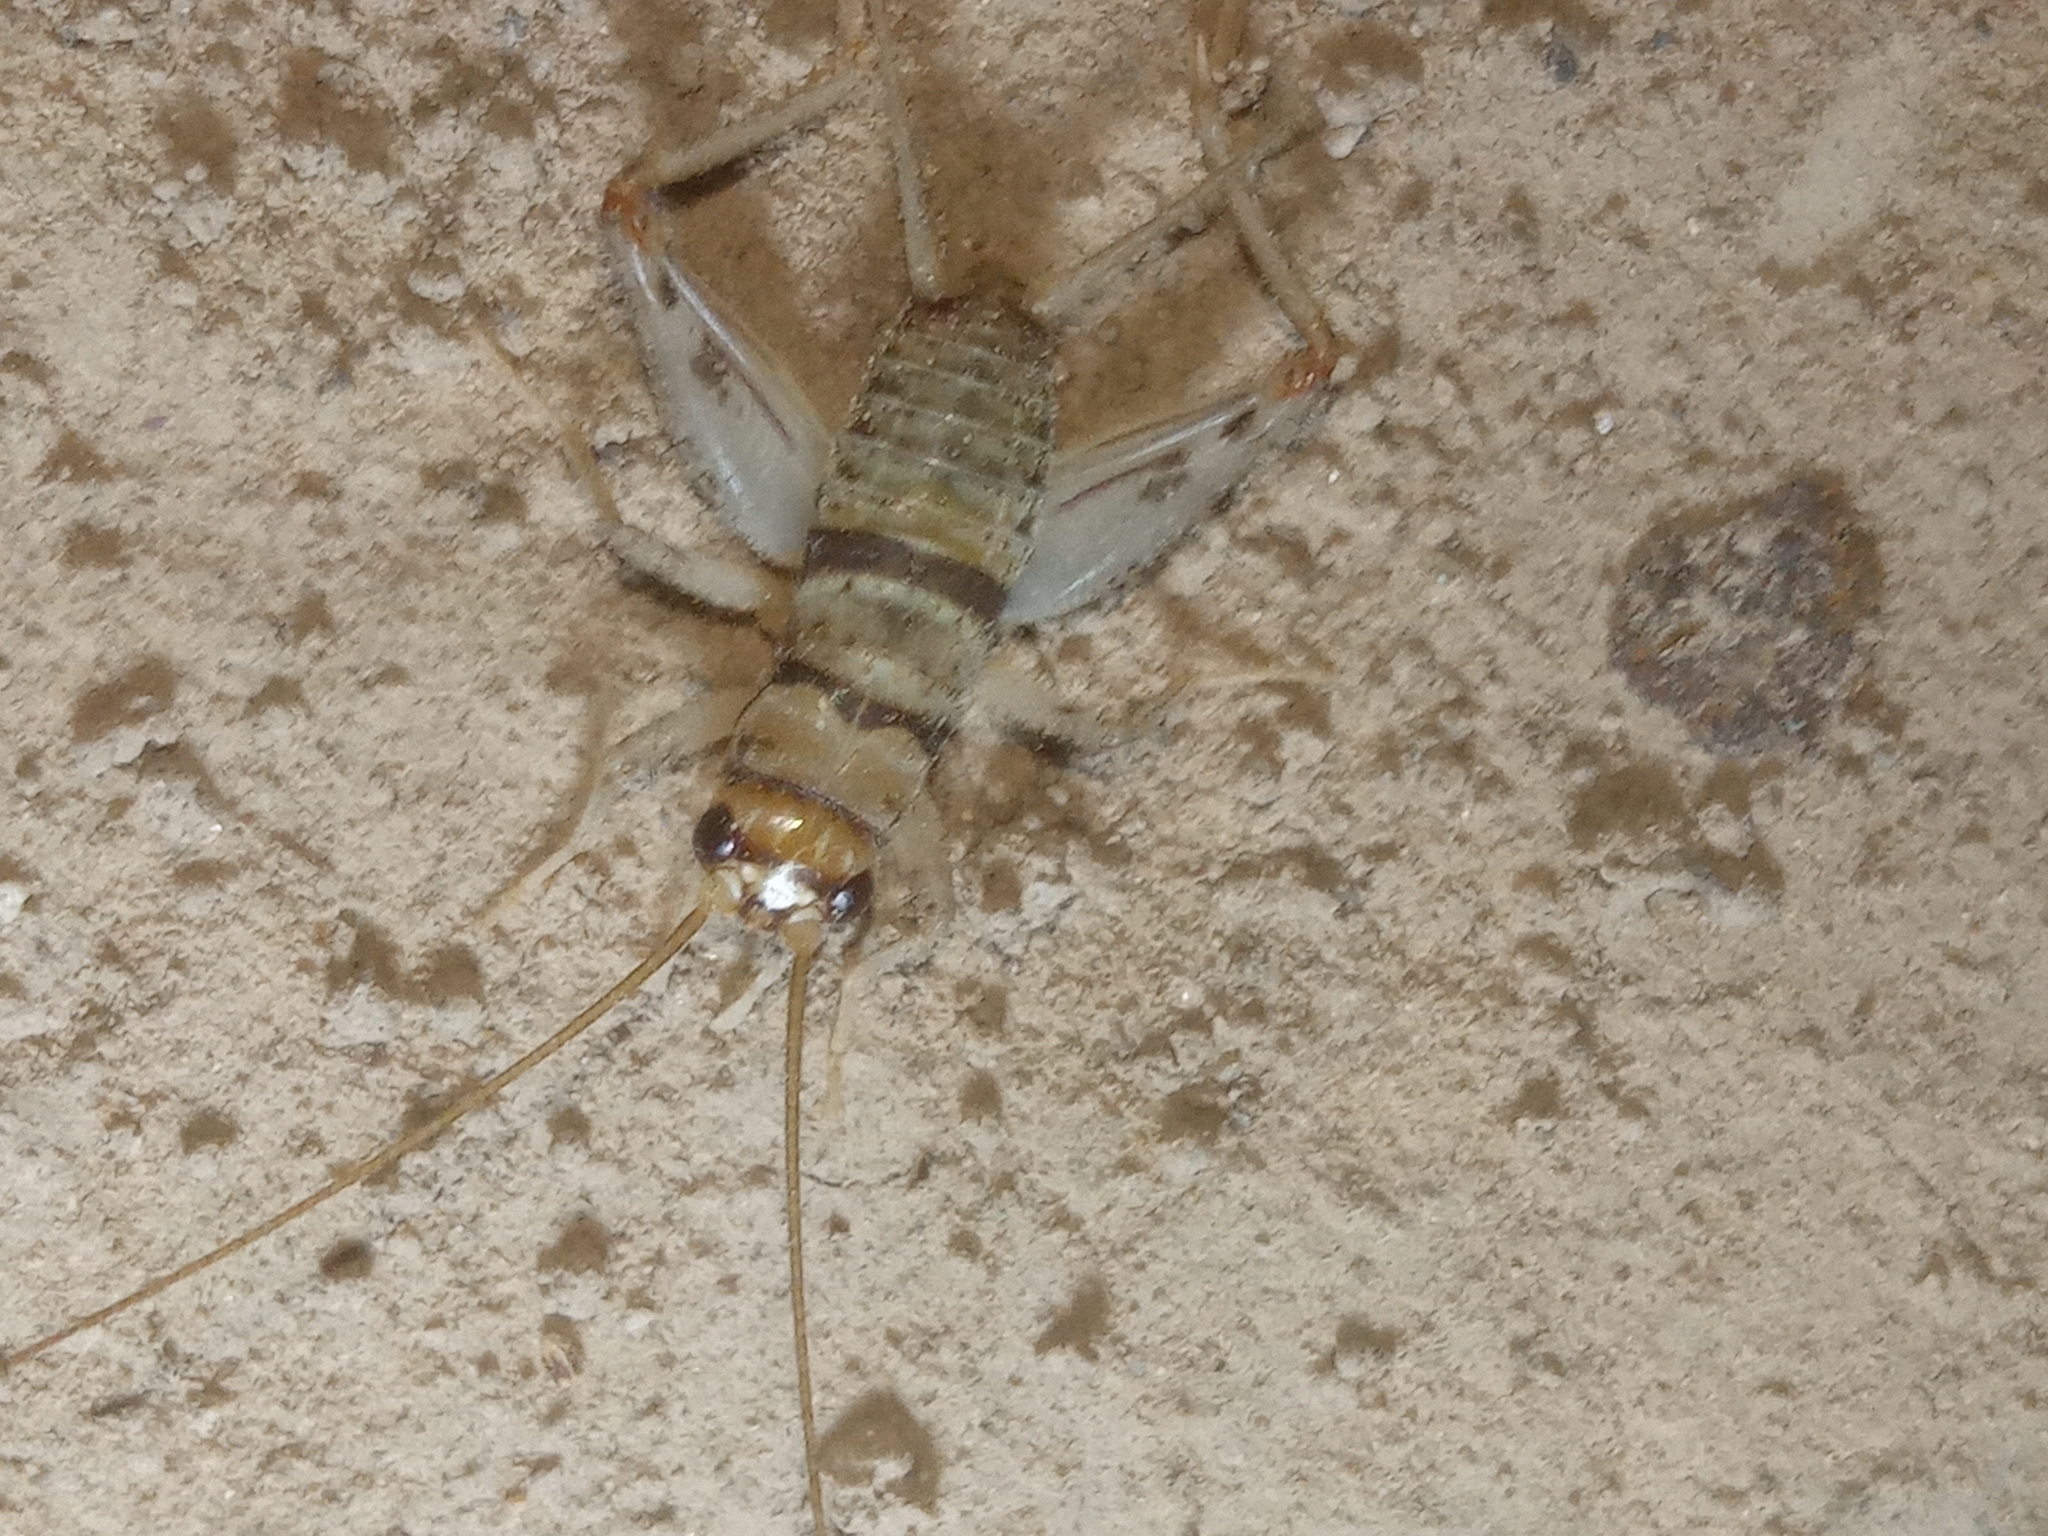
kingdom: Animalia
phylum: Arthropoda
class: Insecta
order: Orthoptera
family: Gryllidae
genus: Gryllodes
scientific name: Gryllodes sigillatus
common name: Tropical house cricket
